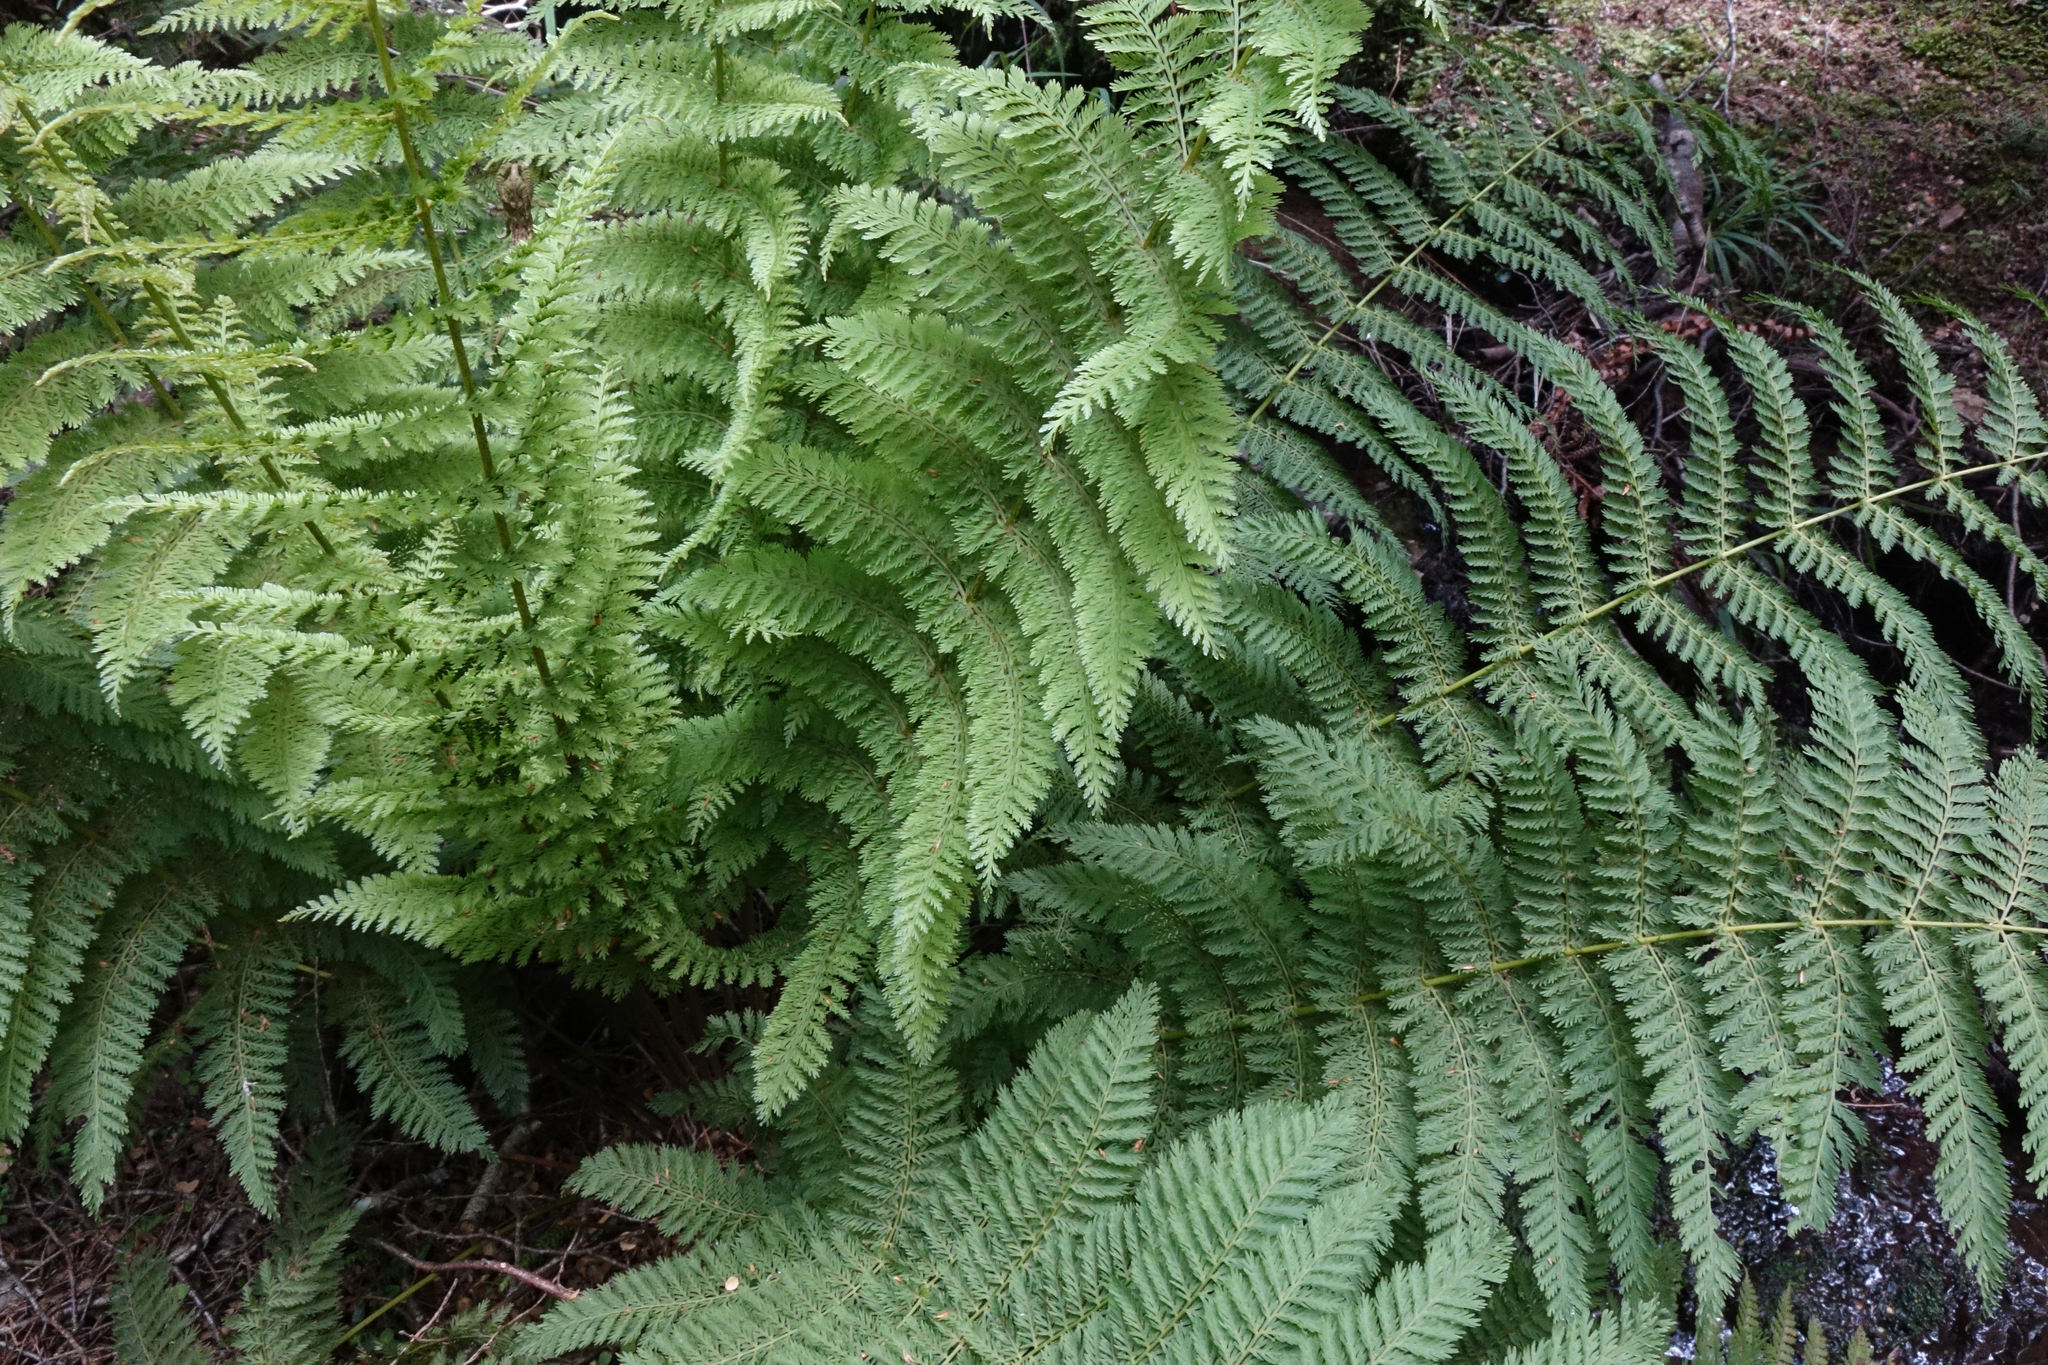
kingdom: Plantae
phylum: Tracheophyta
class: Polypodiopsida
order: Osmundales
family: Osmundaceae
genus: Leptopteris
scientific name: Leptopteris hymenophylloides
